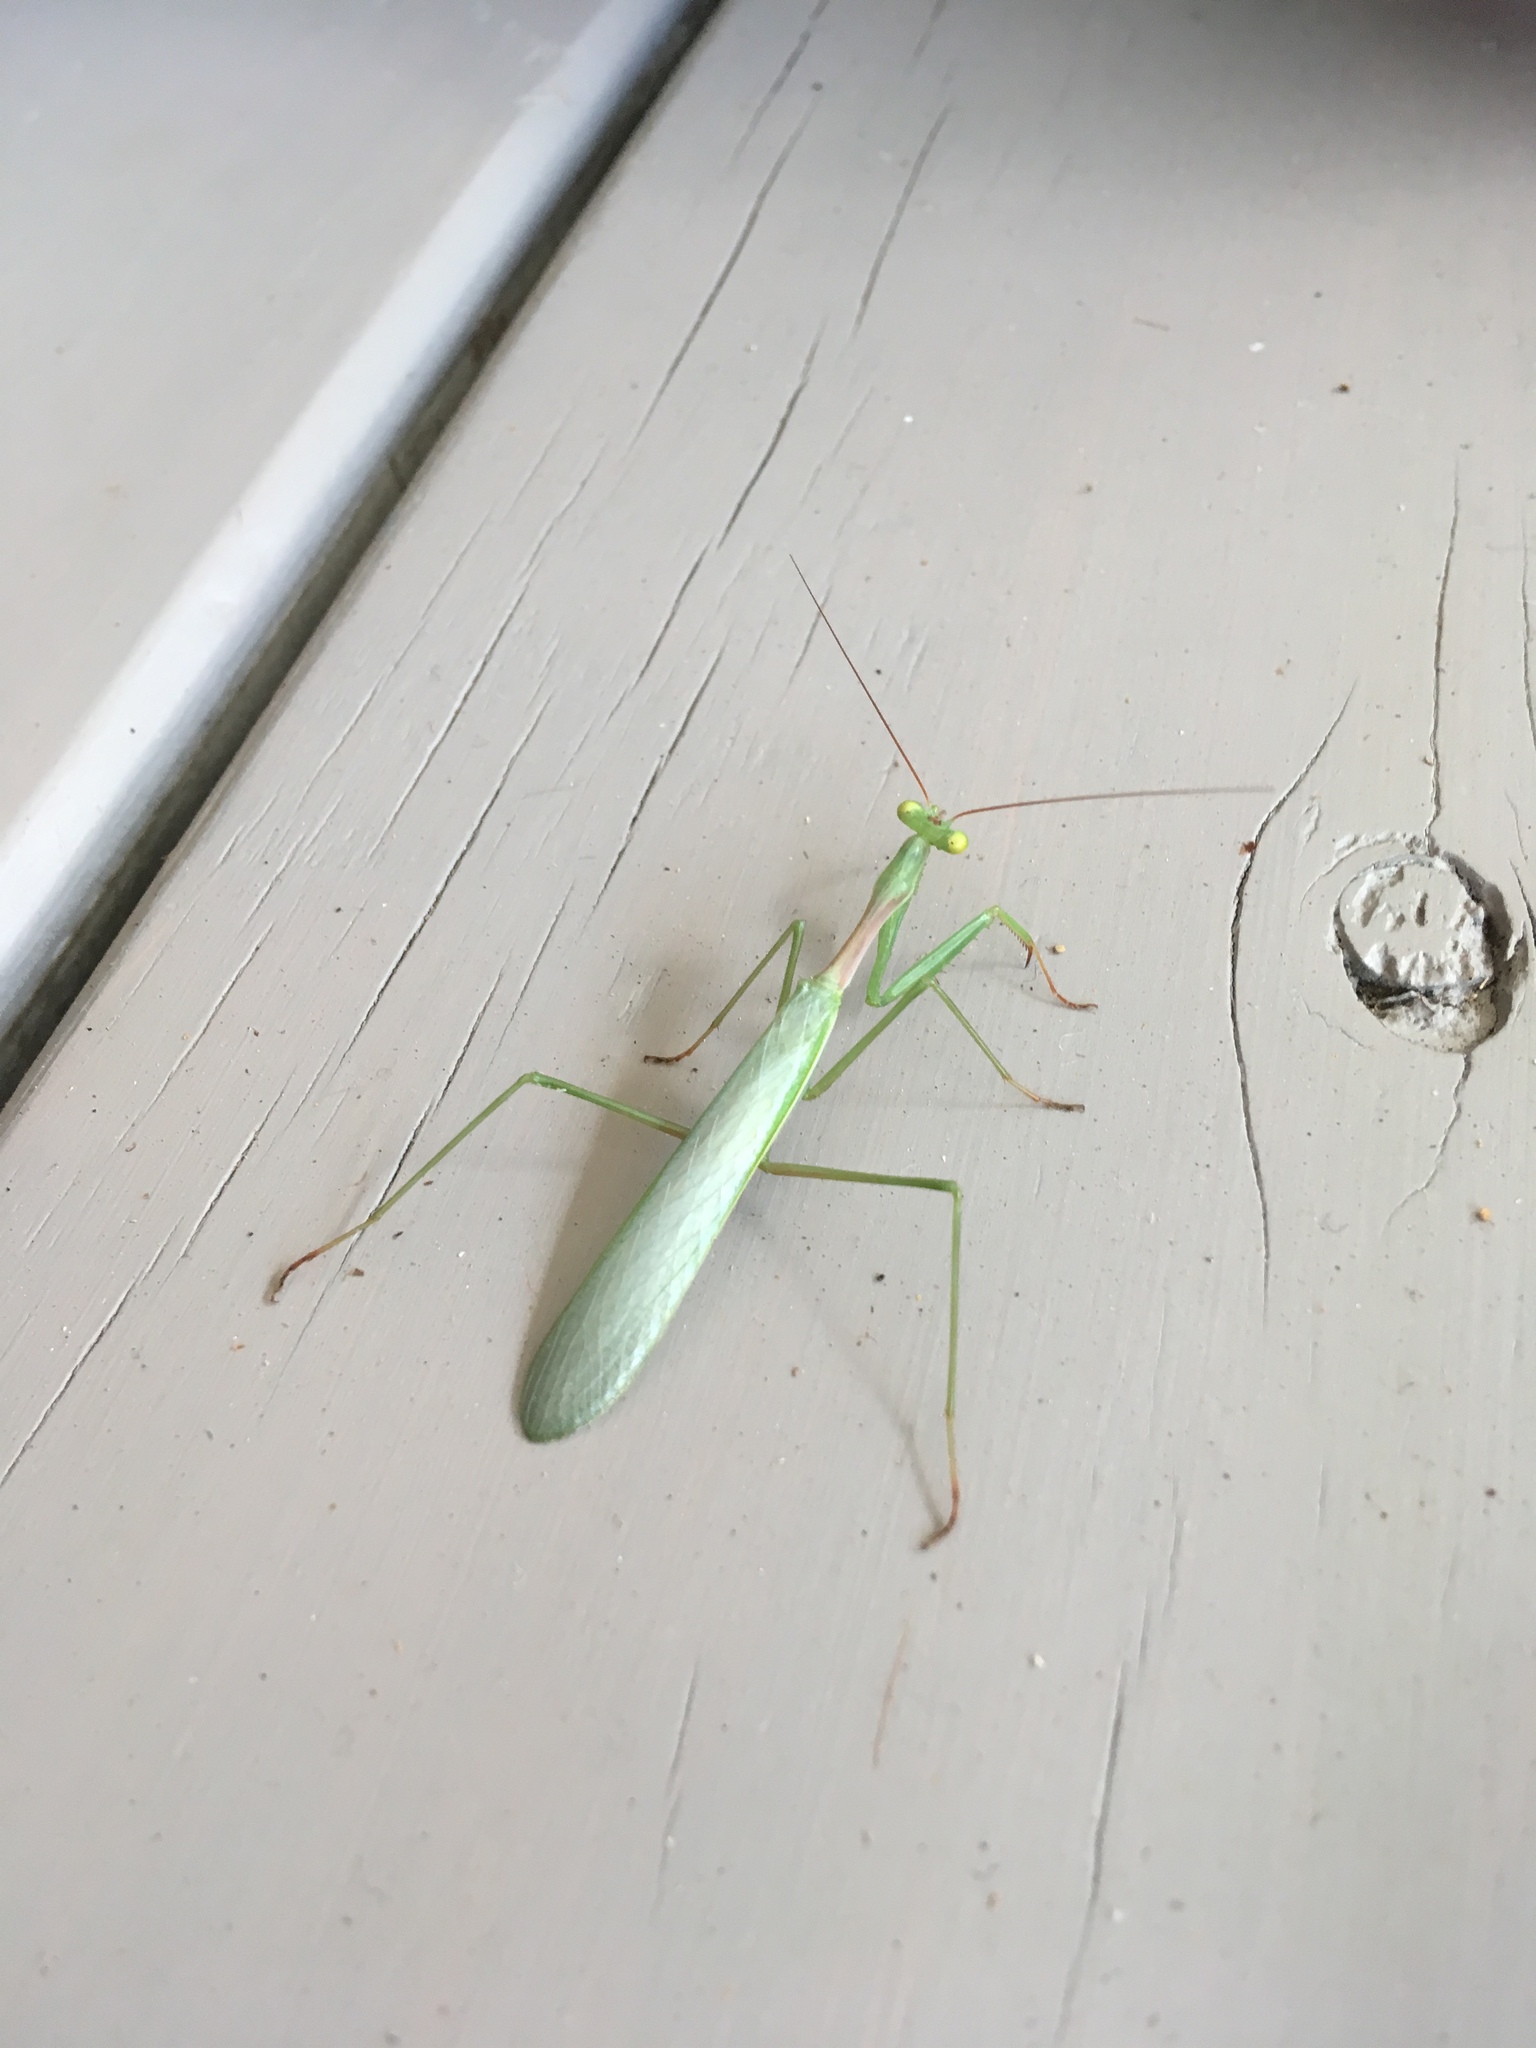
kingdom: Animalia
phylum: Arthropoda
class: Insecta
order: Mantodea
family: Miomantidae
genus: Miomantis
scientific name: Miomantis caffra
